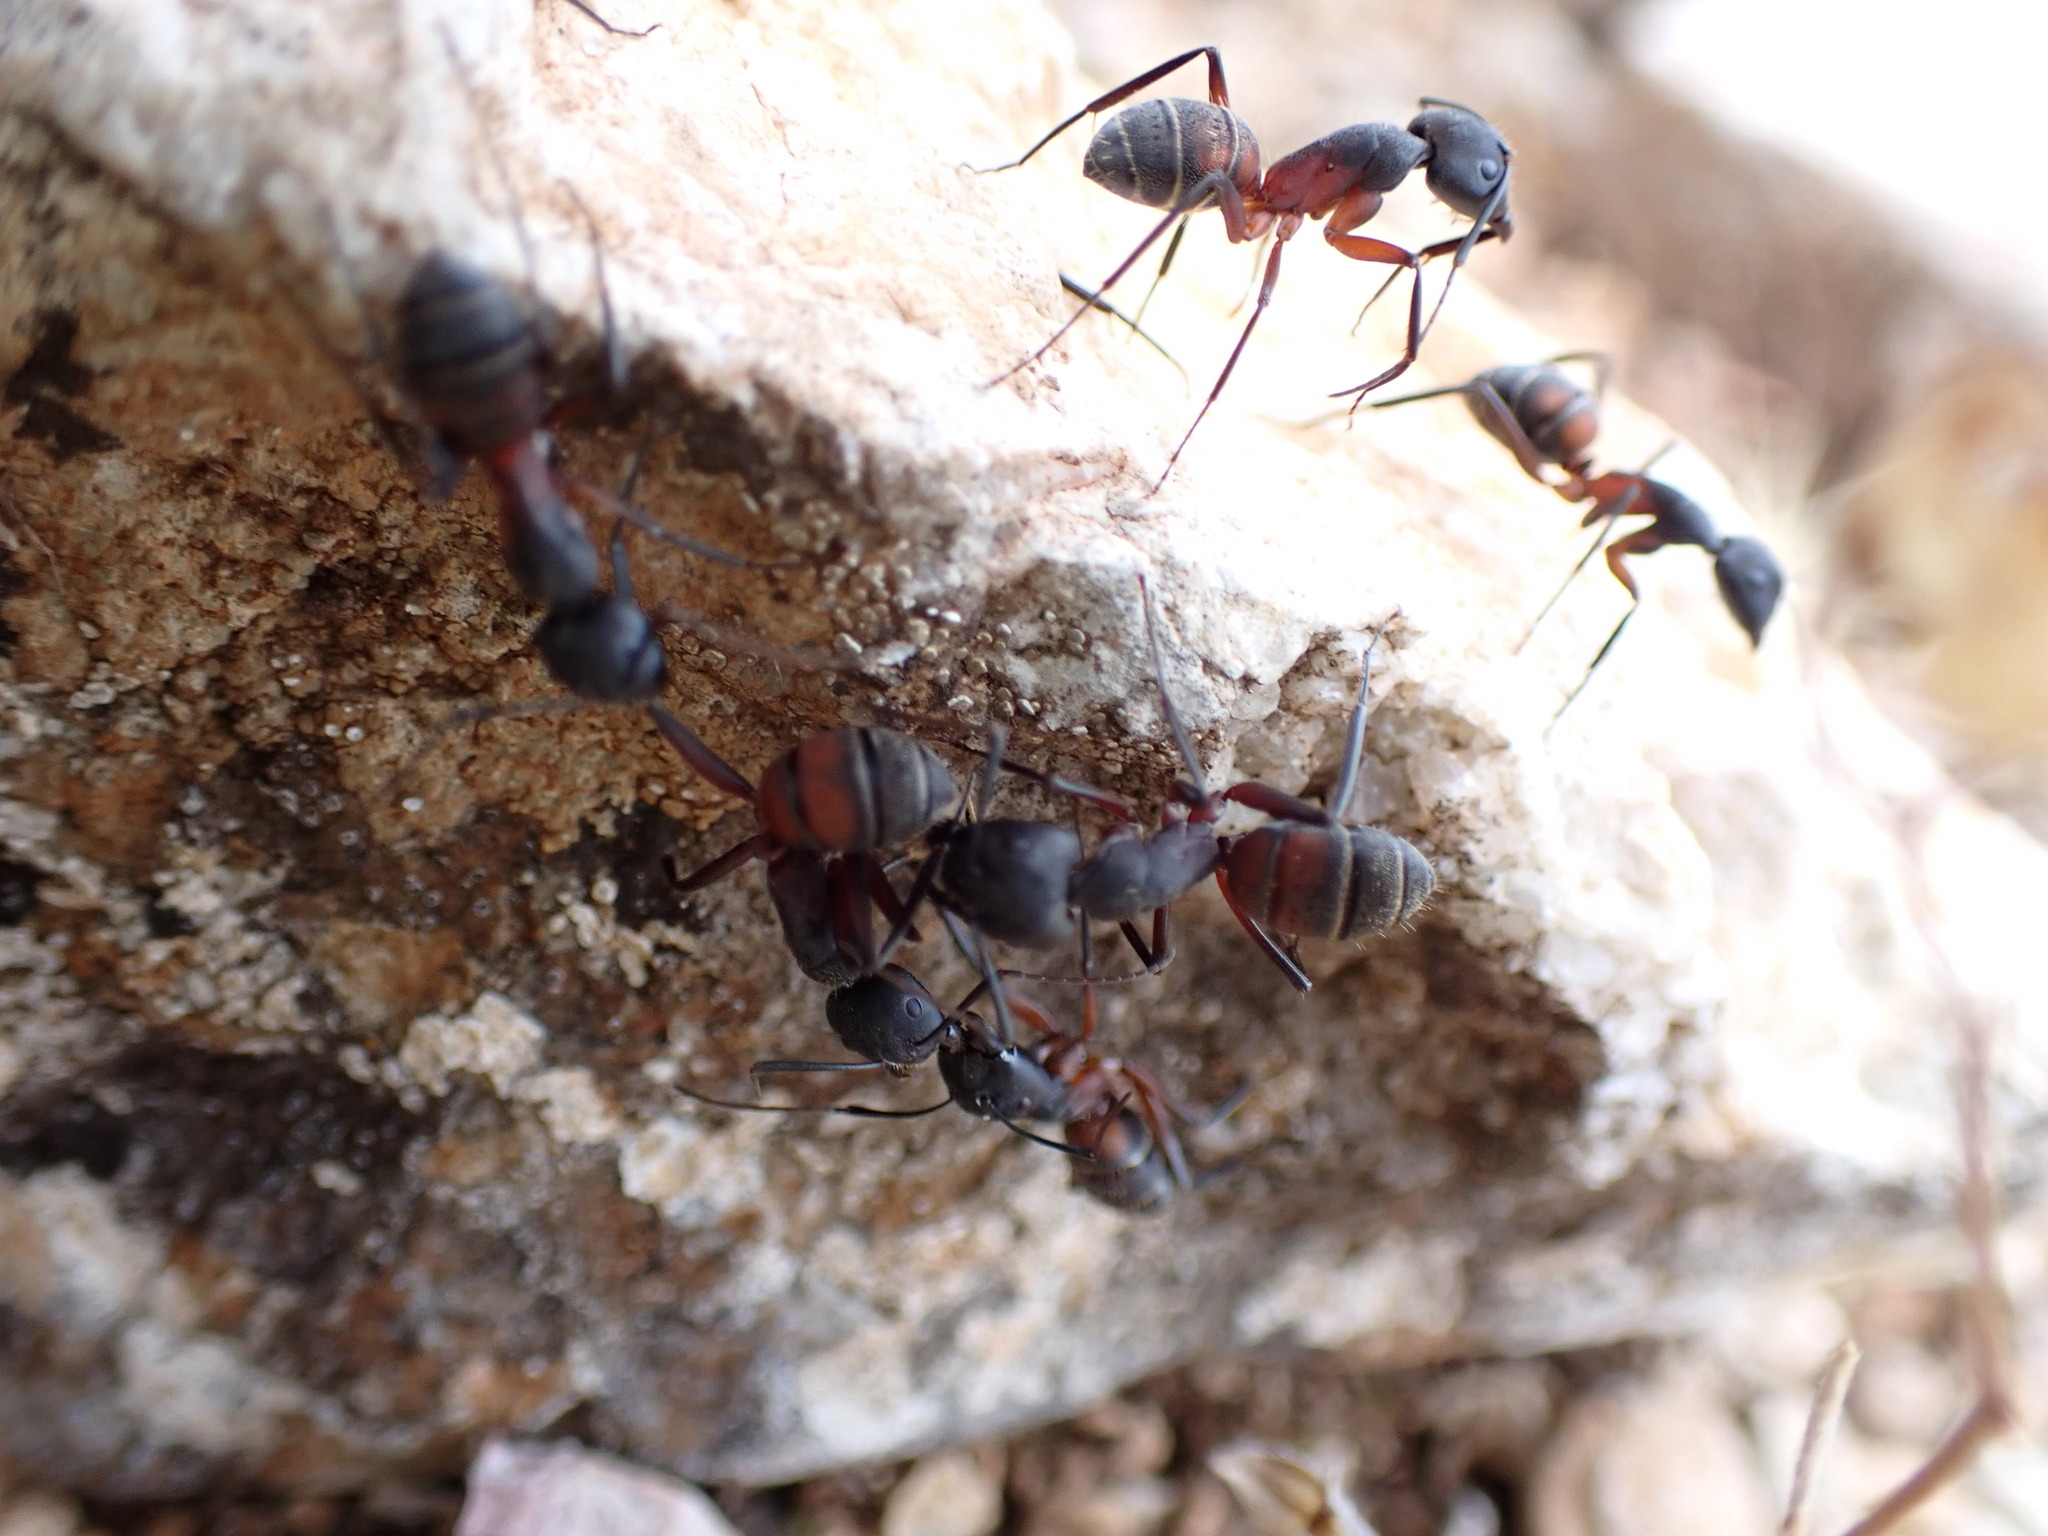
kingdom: Animalia
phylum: Arthropoda
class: Insecta
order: Hymenoptera
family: Formicidae
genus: Camponotus
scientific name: Camponotus cruentatus
